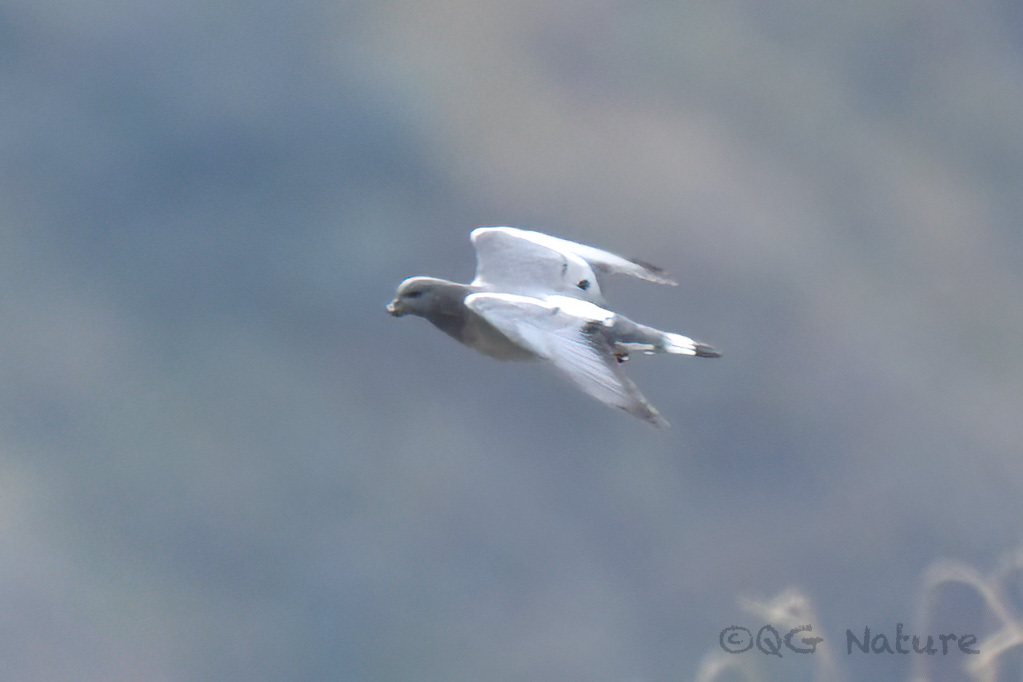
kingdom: Animalia
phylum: Chordata
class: Aves
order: Columbiformes
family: Columbidae
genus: Columba
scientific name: Columba rupestris
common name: Hill pigeon
